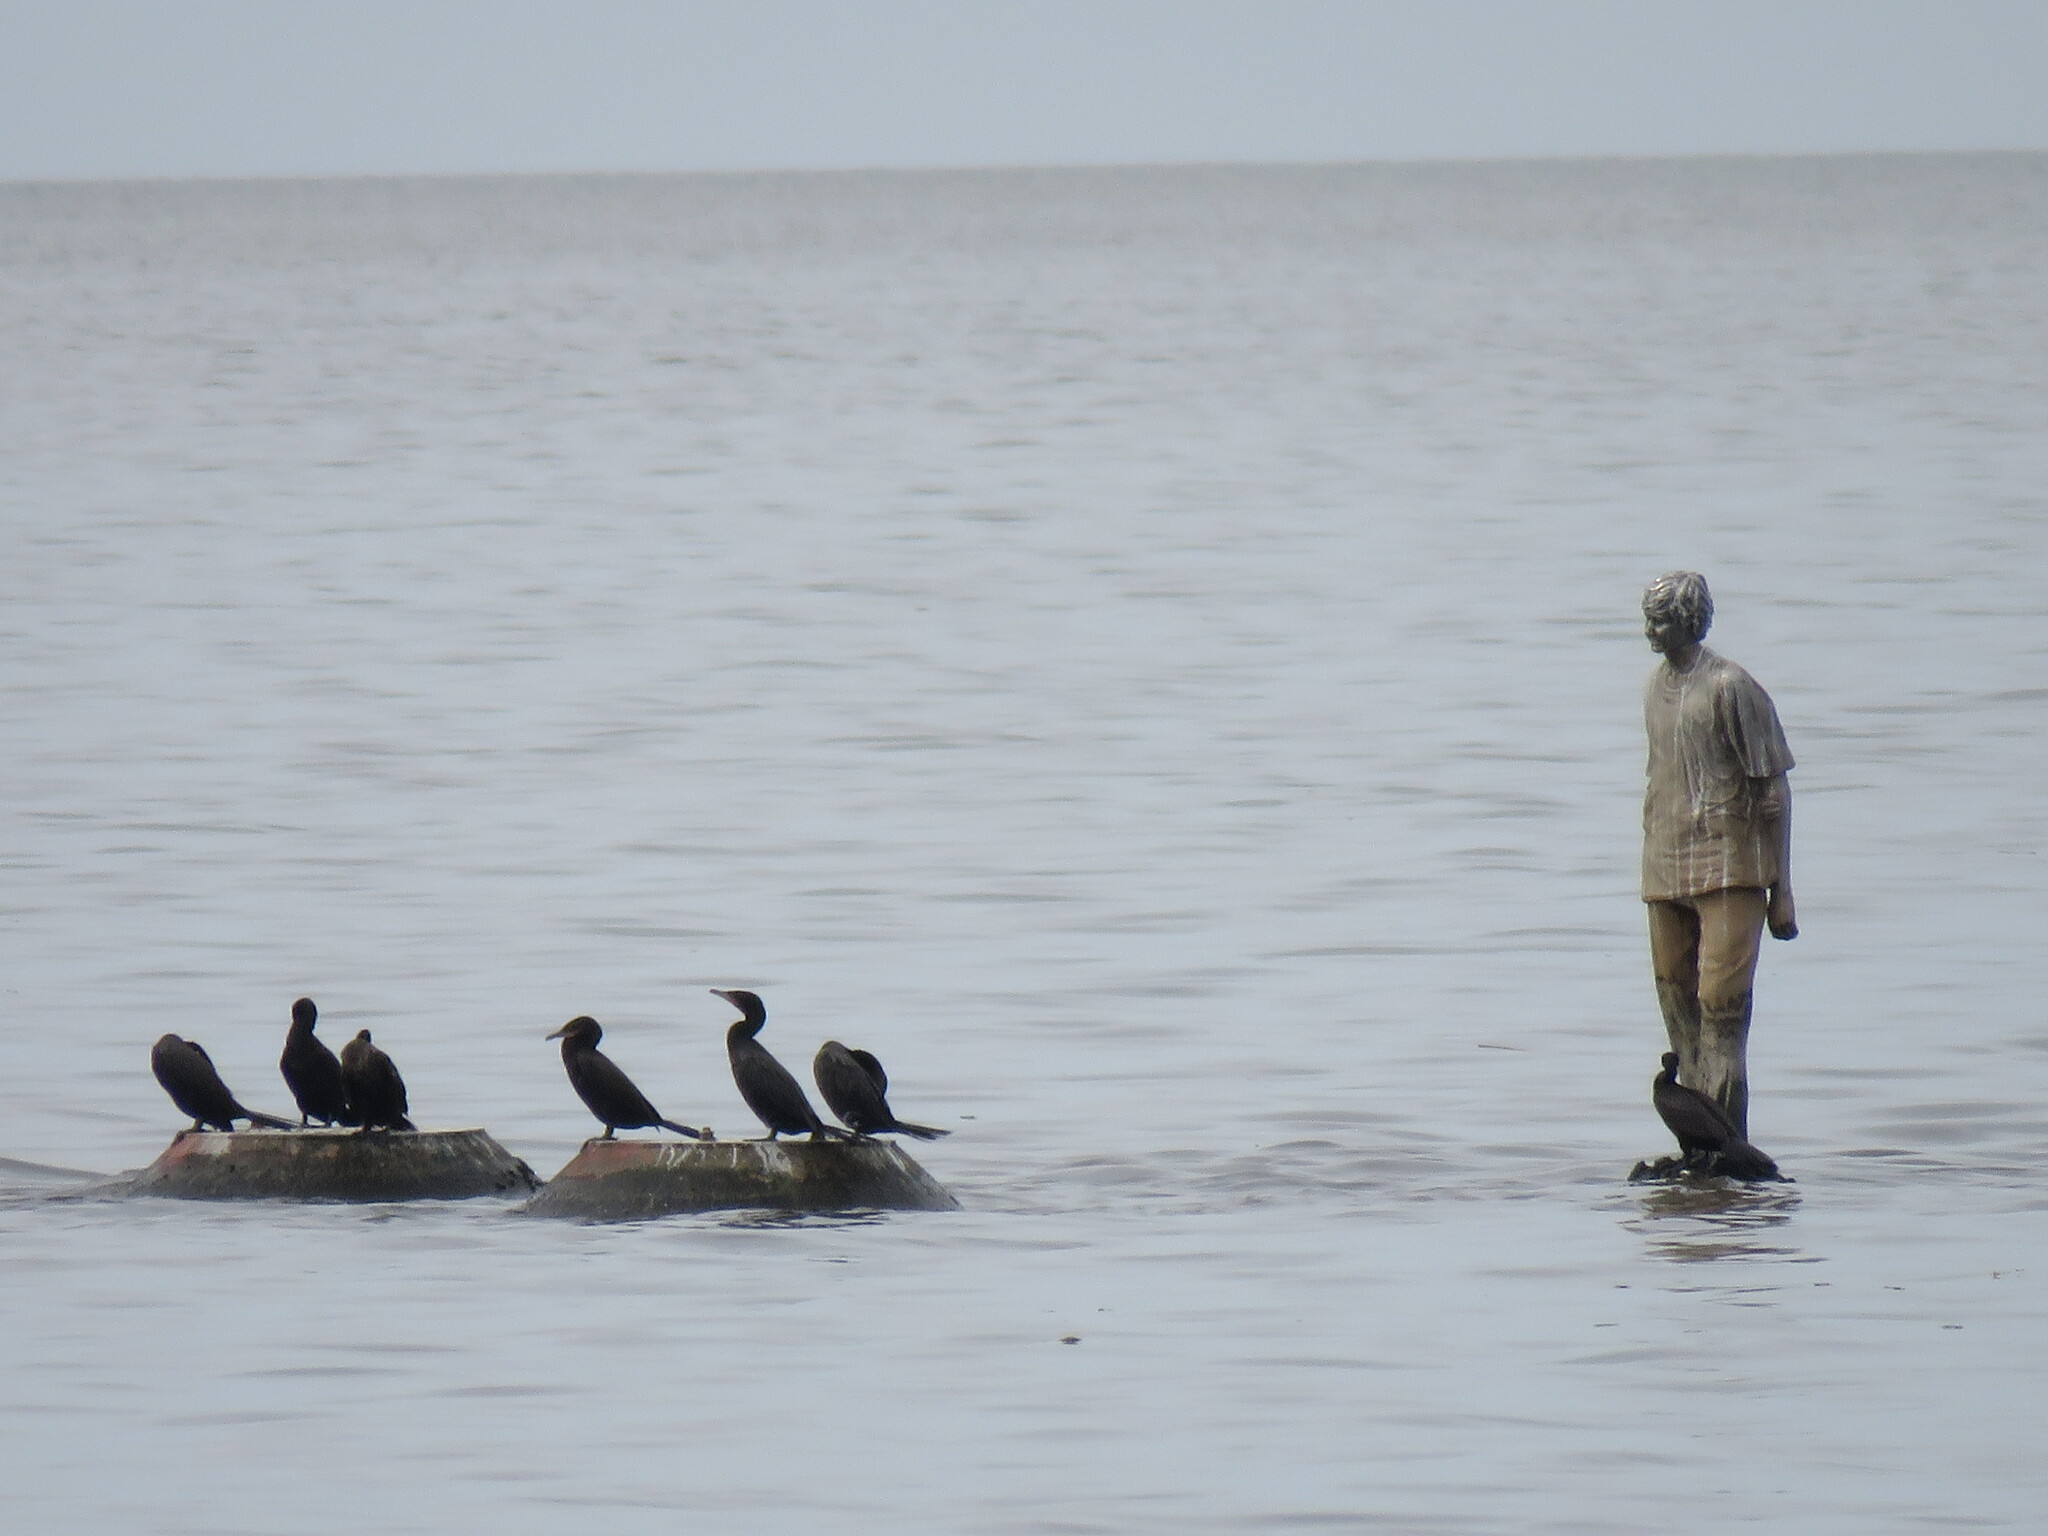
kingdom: Animalia
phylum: Chordata
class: Aves
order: Suliformes
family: Phalacrocoracidae
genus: Phalacrocorax
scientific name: Phalacrocorax brasilianus
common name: Neotropic cormorant
